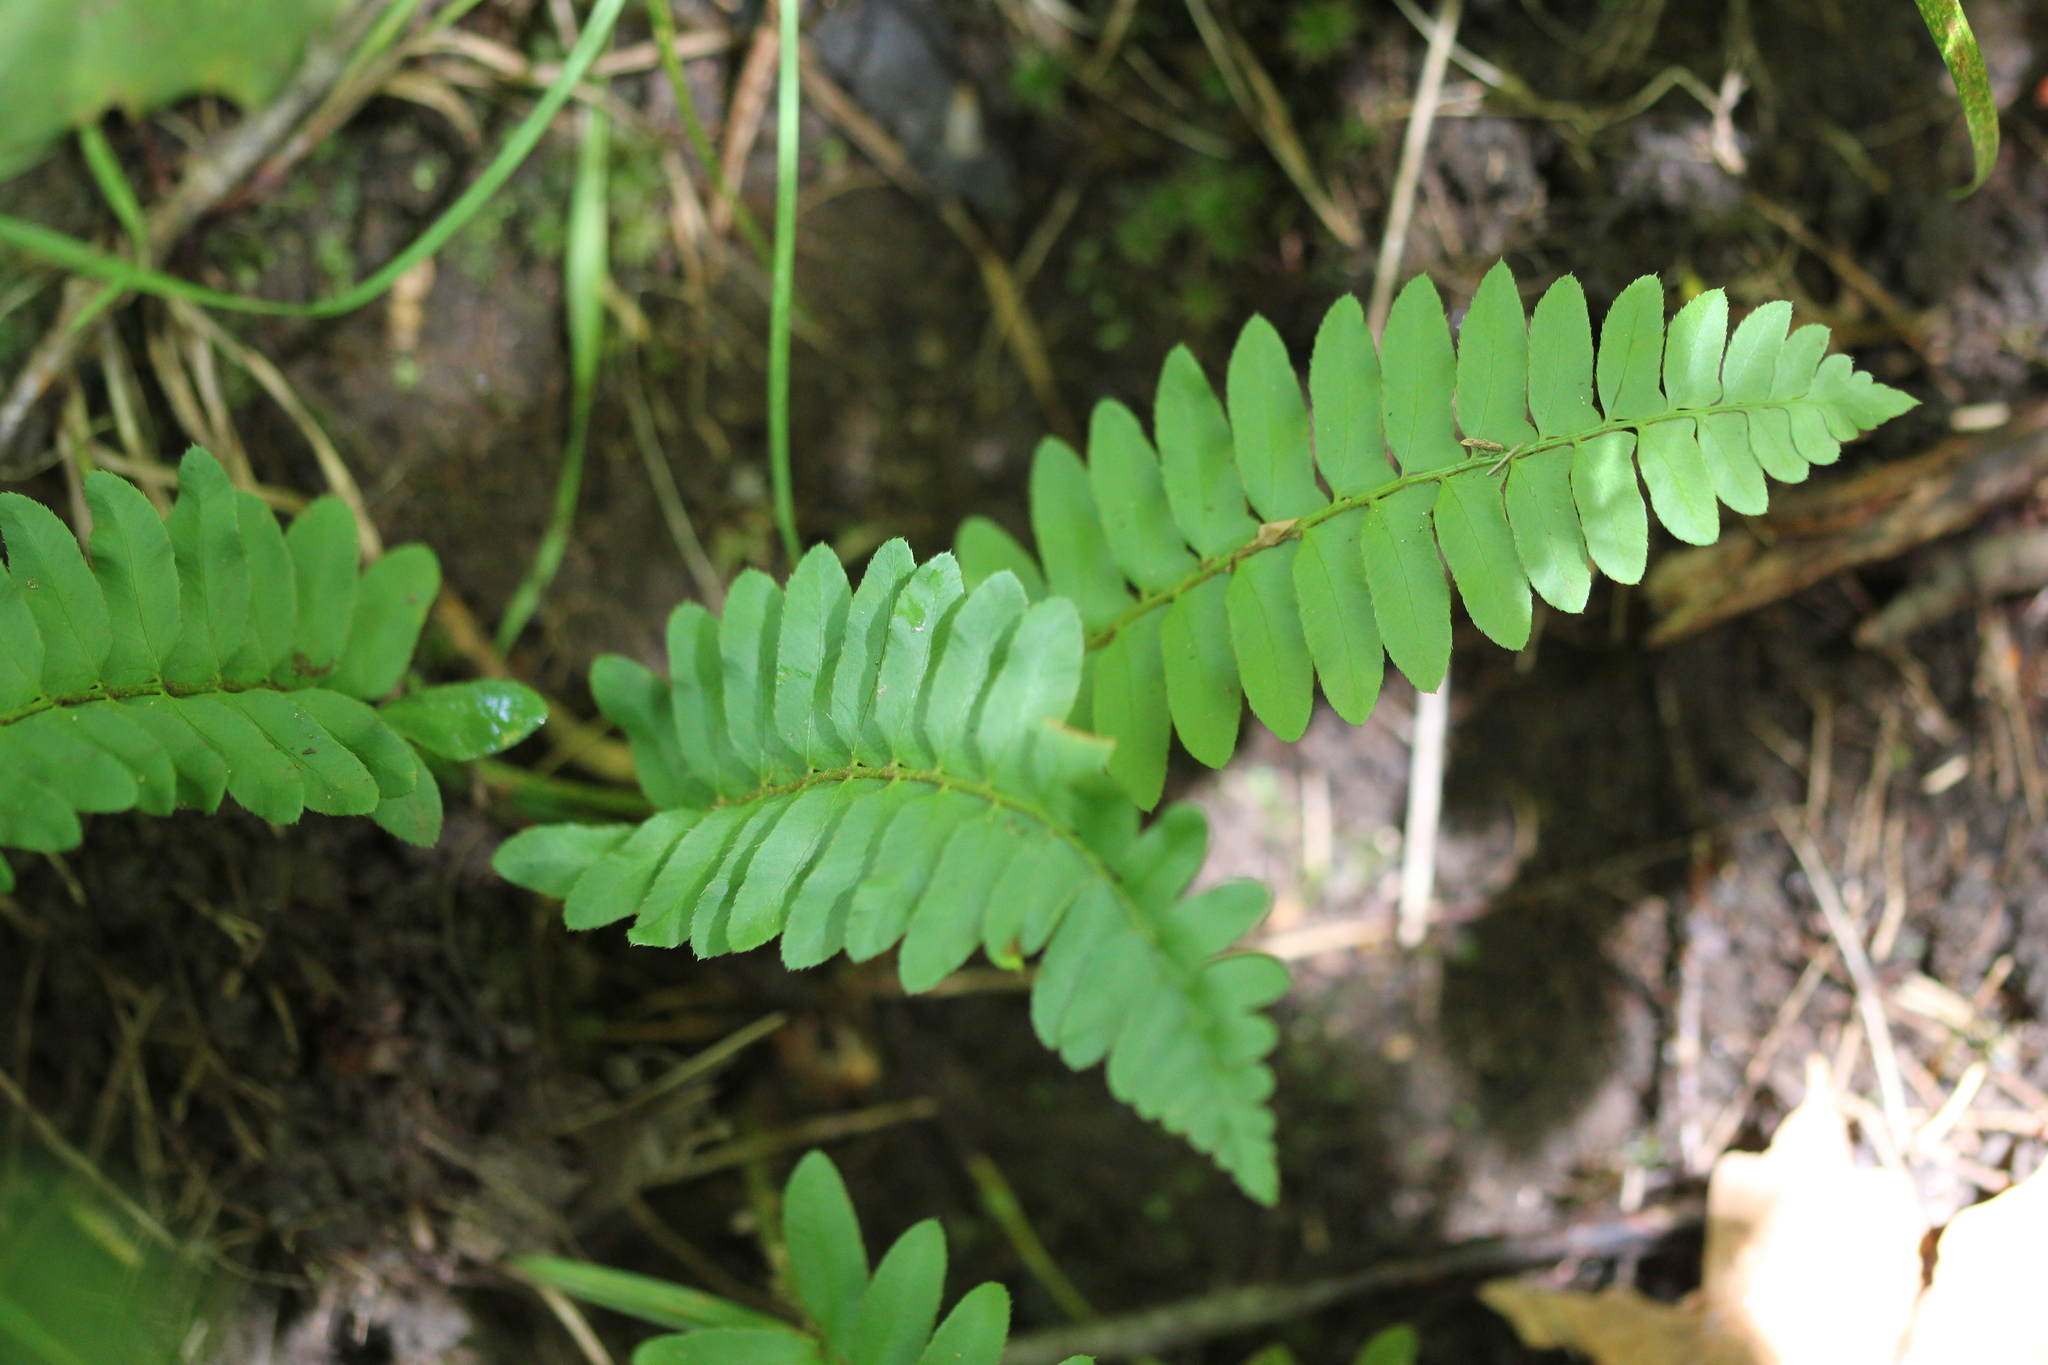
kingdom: Plantae
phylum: Tracheophyta
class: Polypodiopsida
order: Polypodiales
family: Dryopteridaceae
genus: Polystichum
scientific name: Polystichum acrostichoides
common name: Christmas fern
